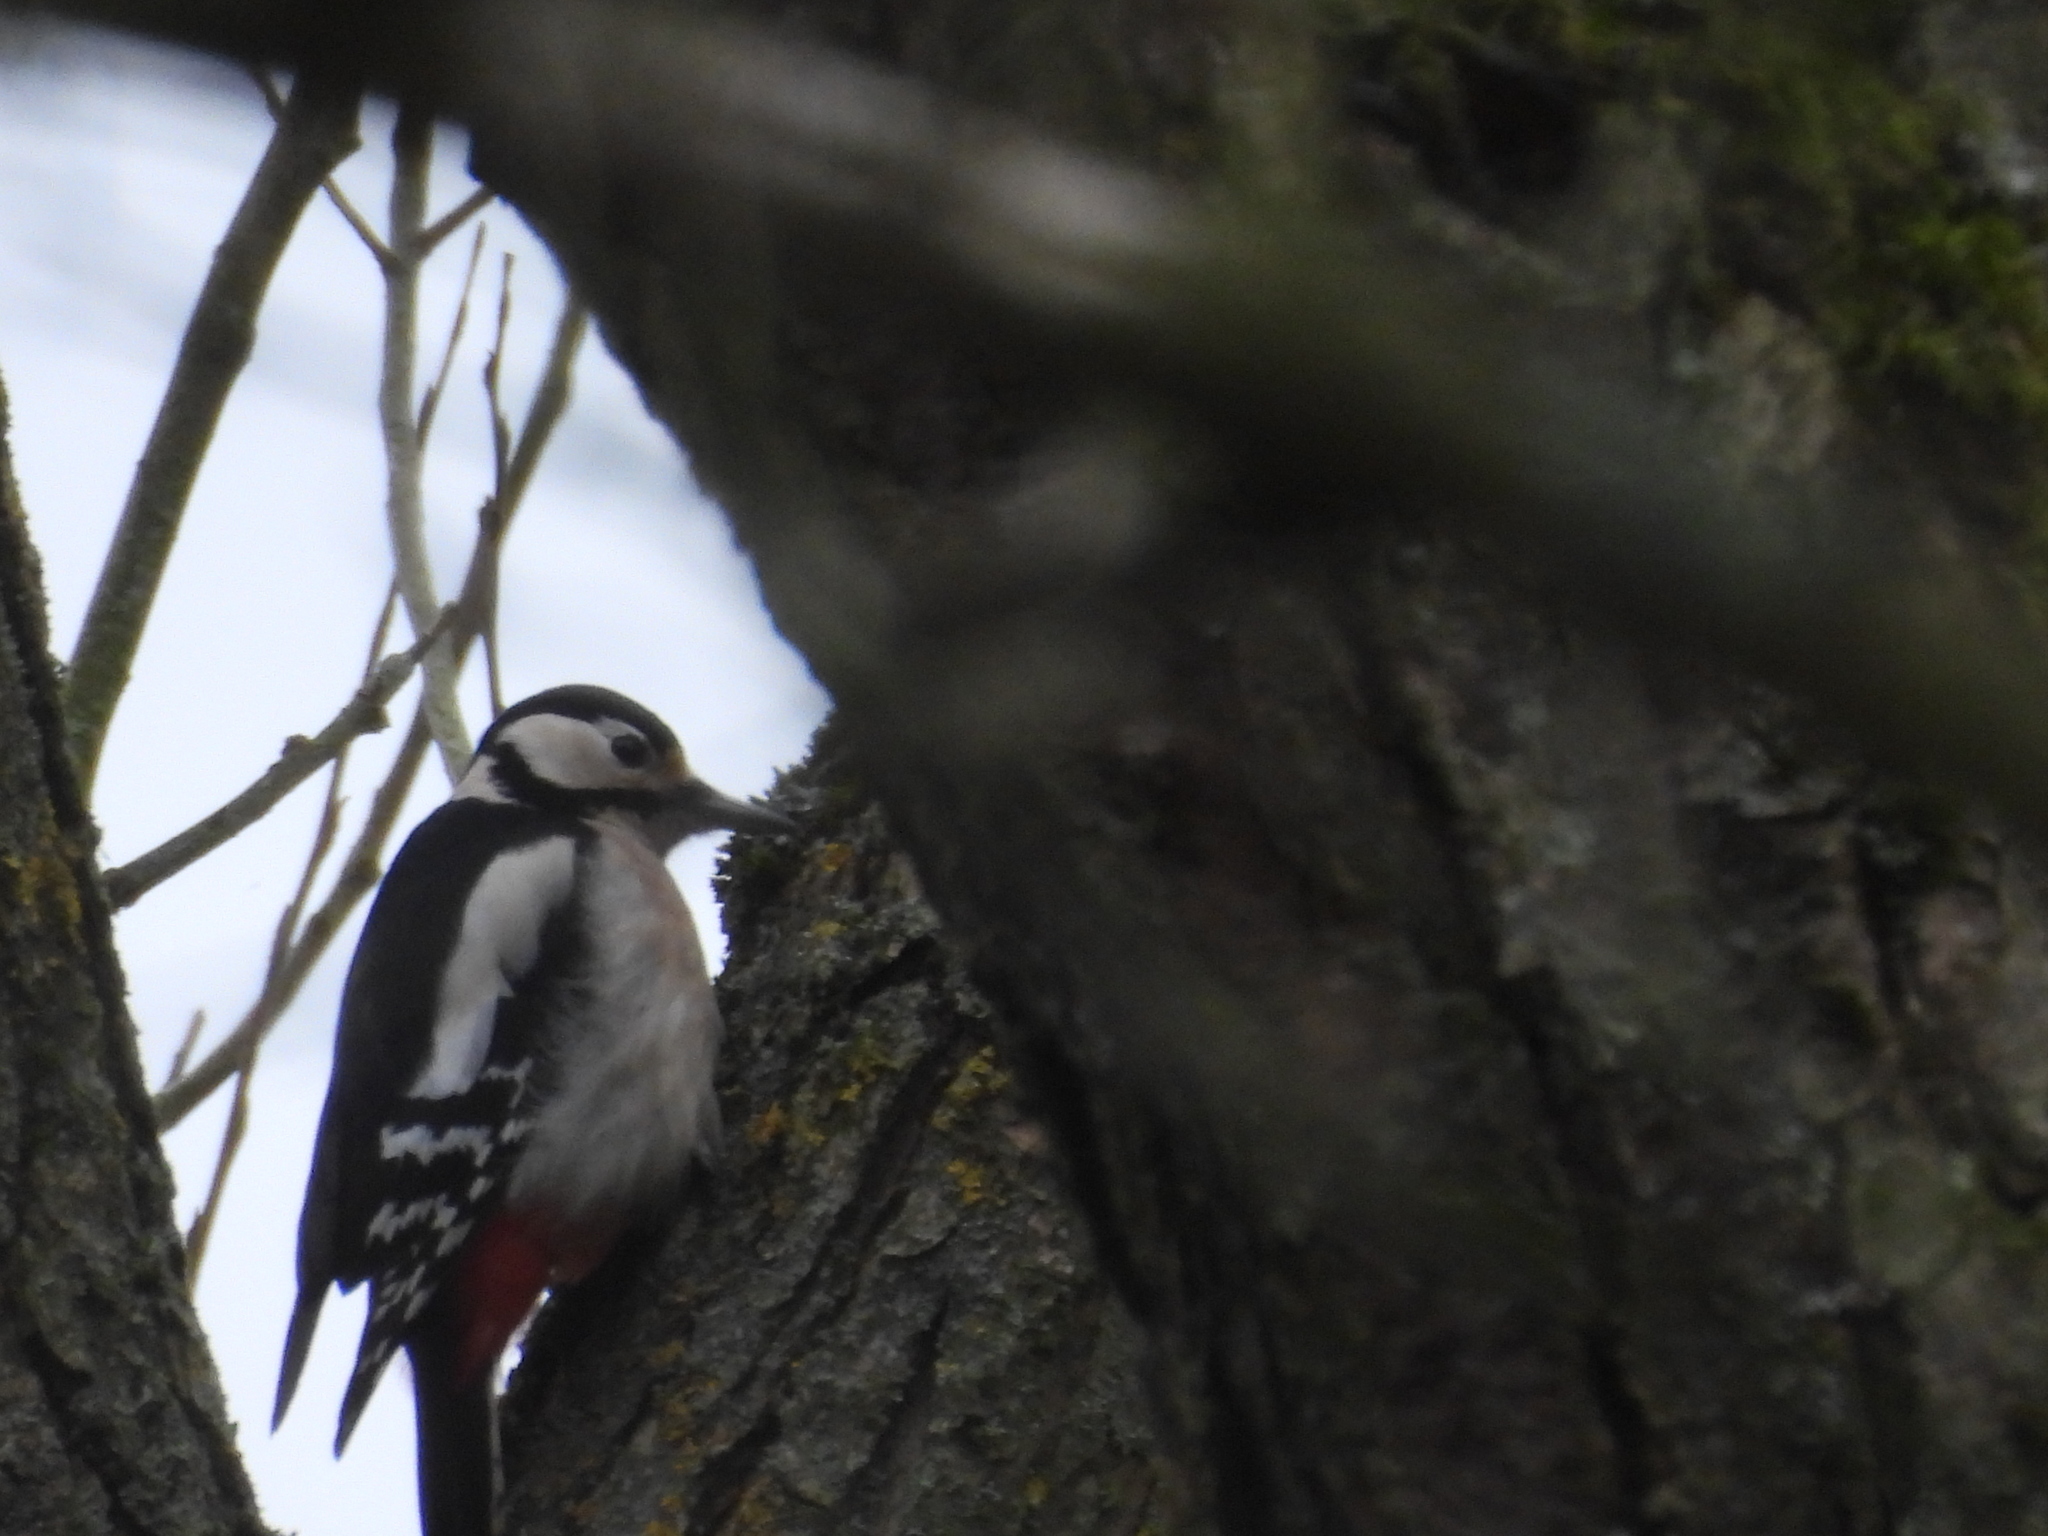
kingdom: Animalia
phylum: Chordata
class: Aves
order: Piciformes
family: Picidae
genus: Dendrocopos
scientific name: Dendrocopos major
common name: Great spotted woodpecker
